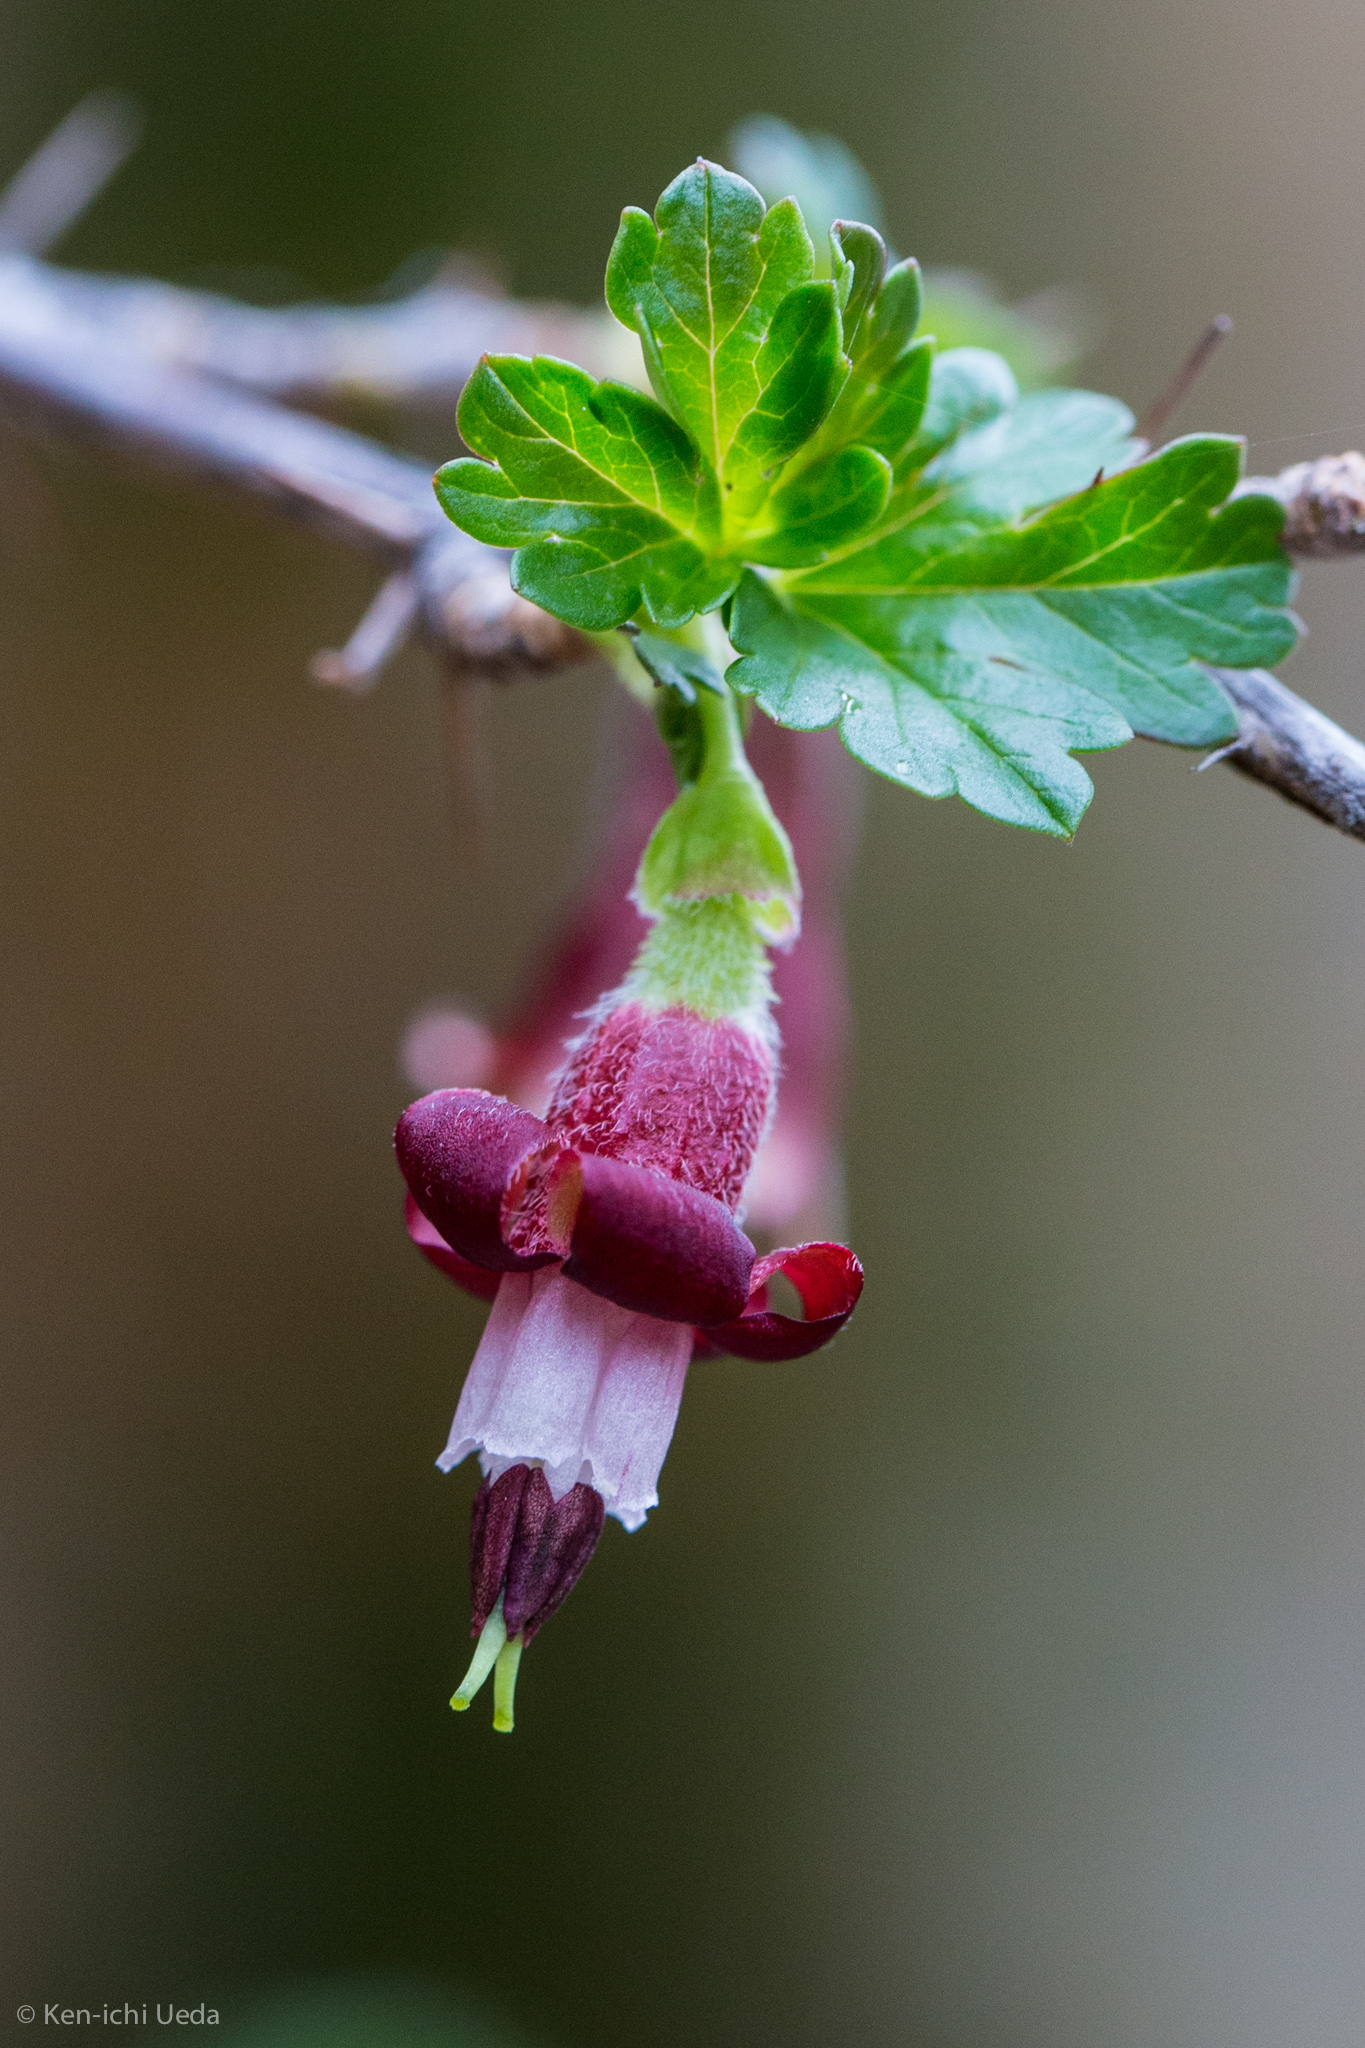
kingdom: Plantae
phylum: Tracheophyta
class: Magnoliopsida
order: Saxifragales
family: Grossulariaceae
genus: Ribes
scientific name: Ribes roezlii
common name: Sierra gooseberry
